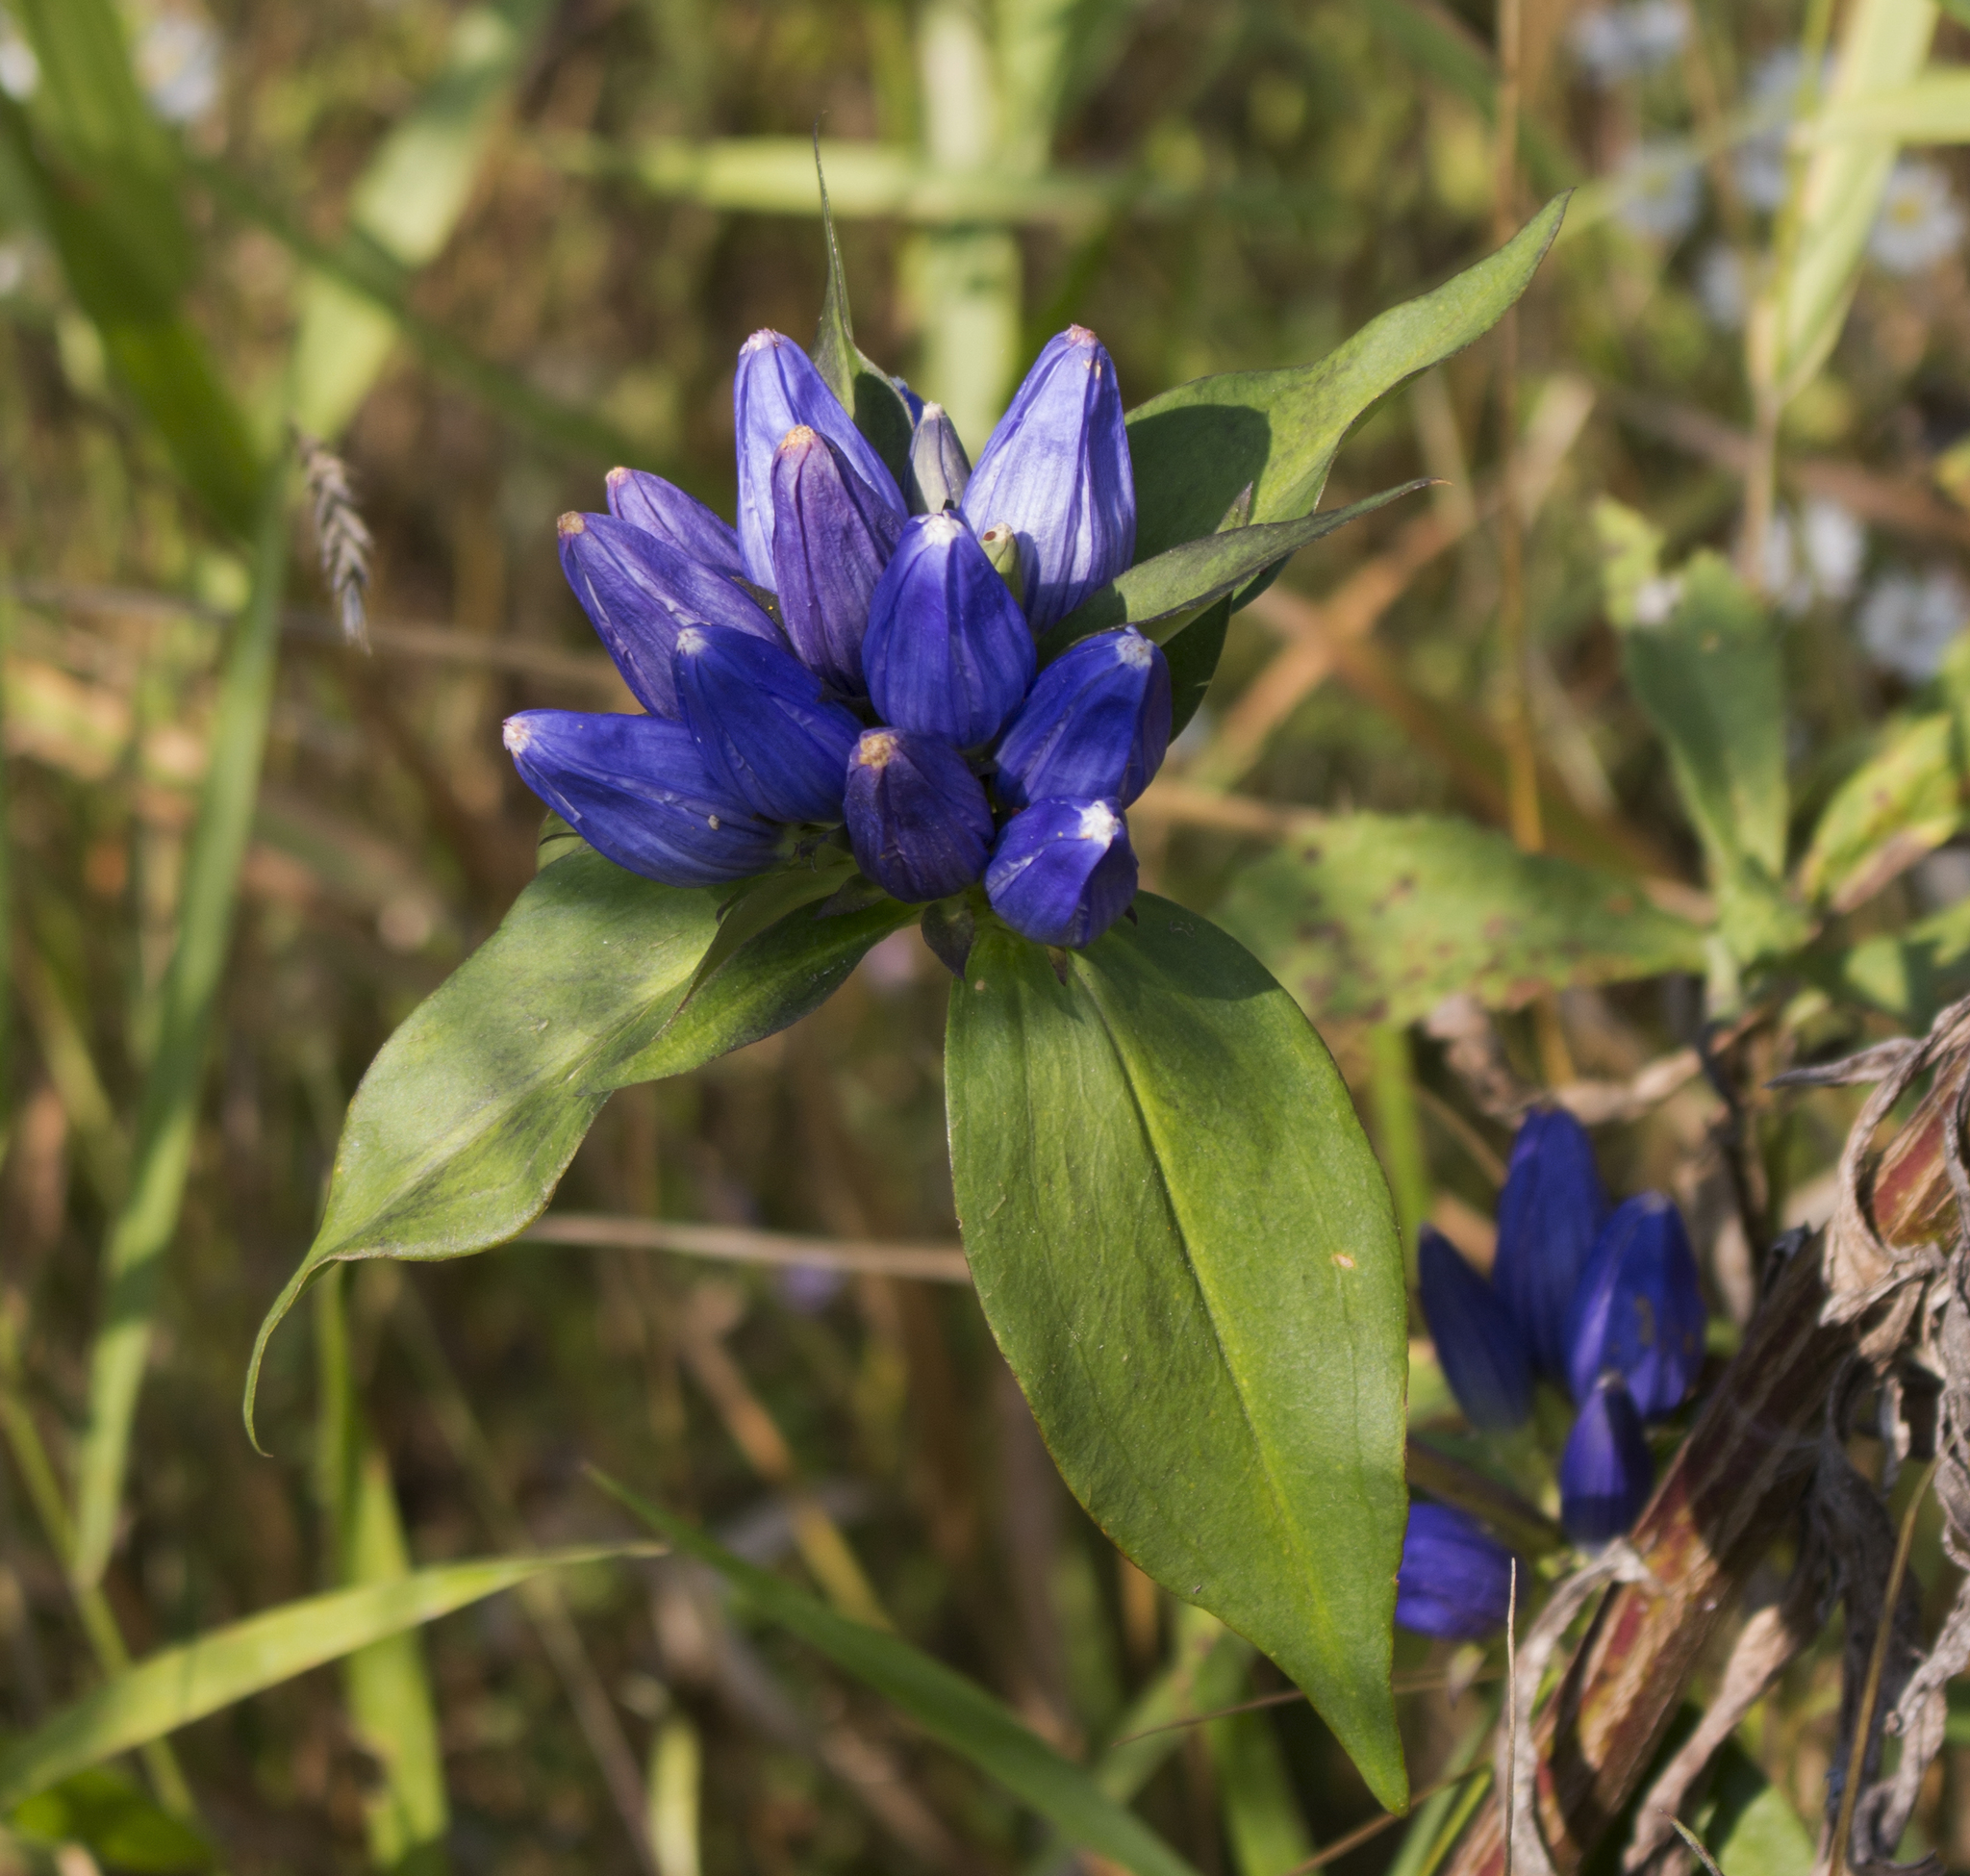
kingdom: Plantae
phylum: Tracheophyta
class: Magnoliopsida
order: Gentianales
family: Gentianaceae
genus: Gentiana
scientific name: Gentiana andrewsii
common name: Bottle gentian
